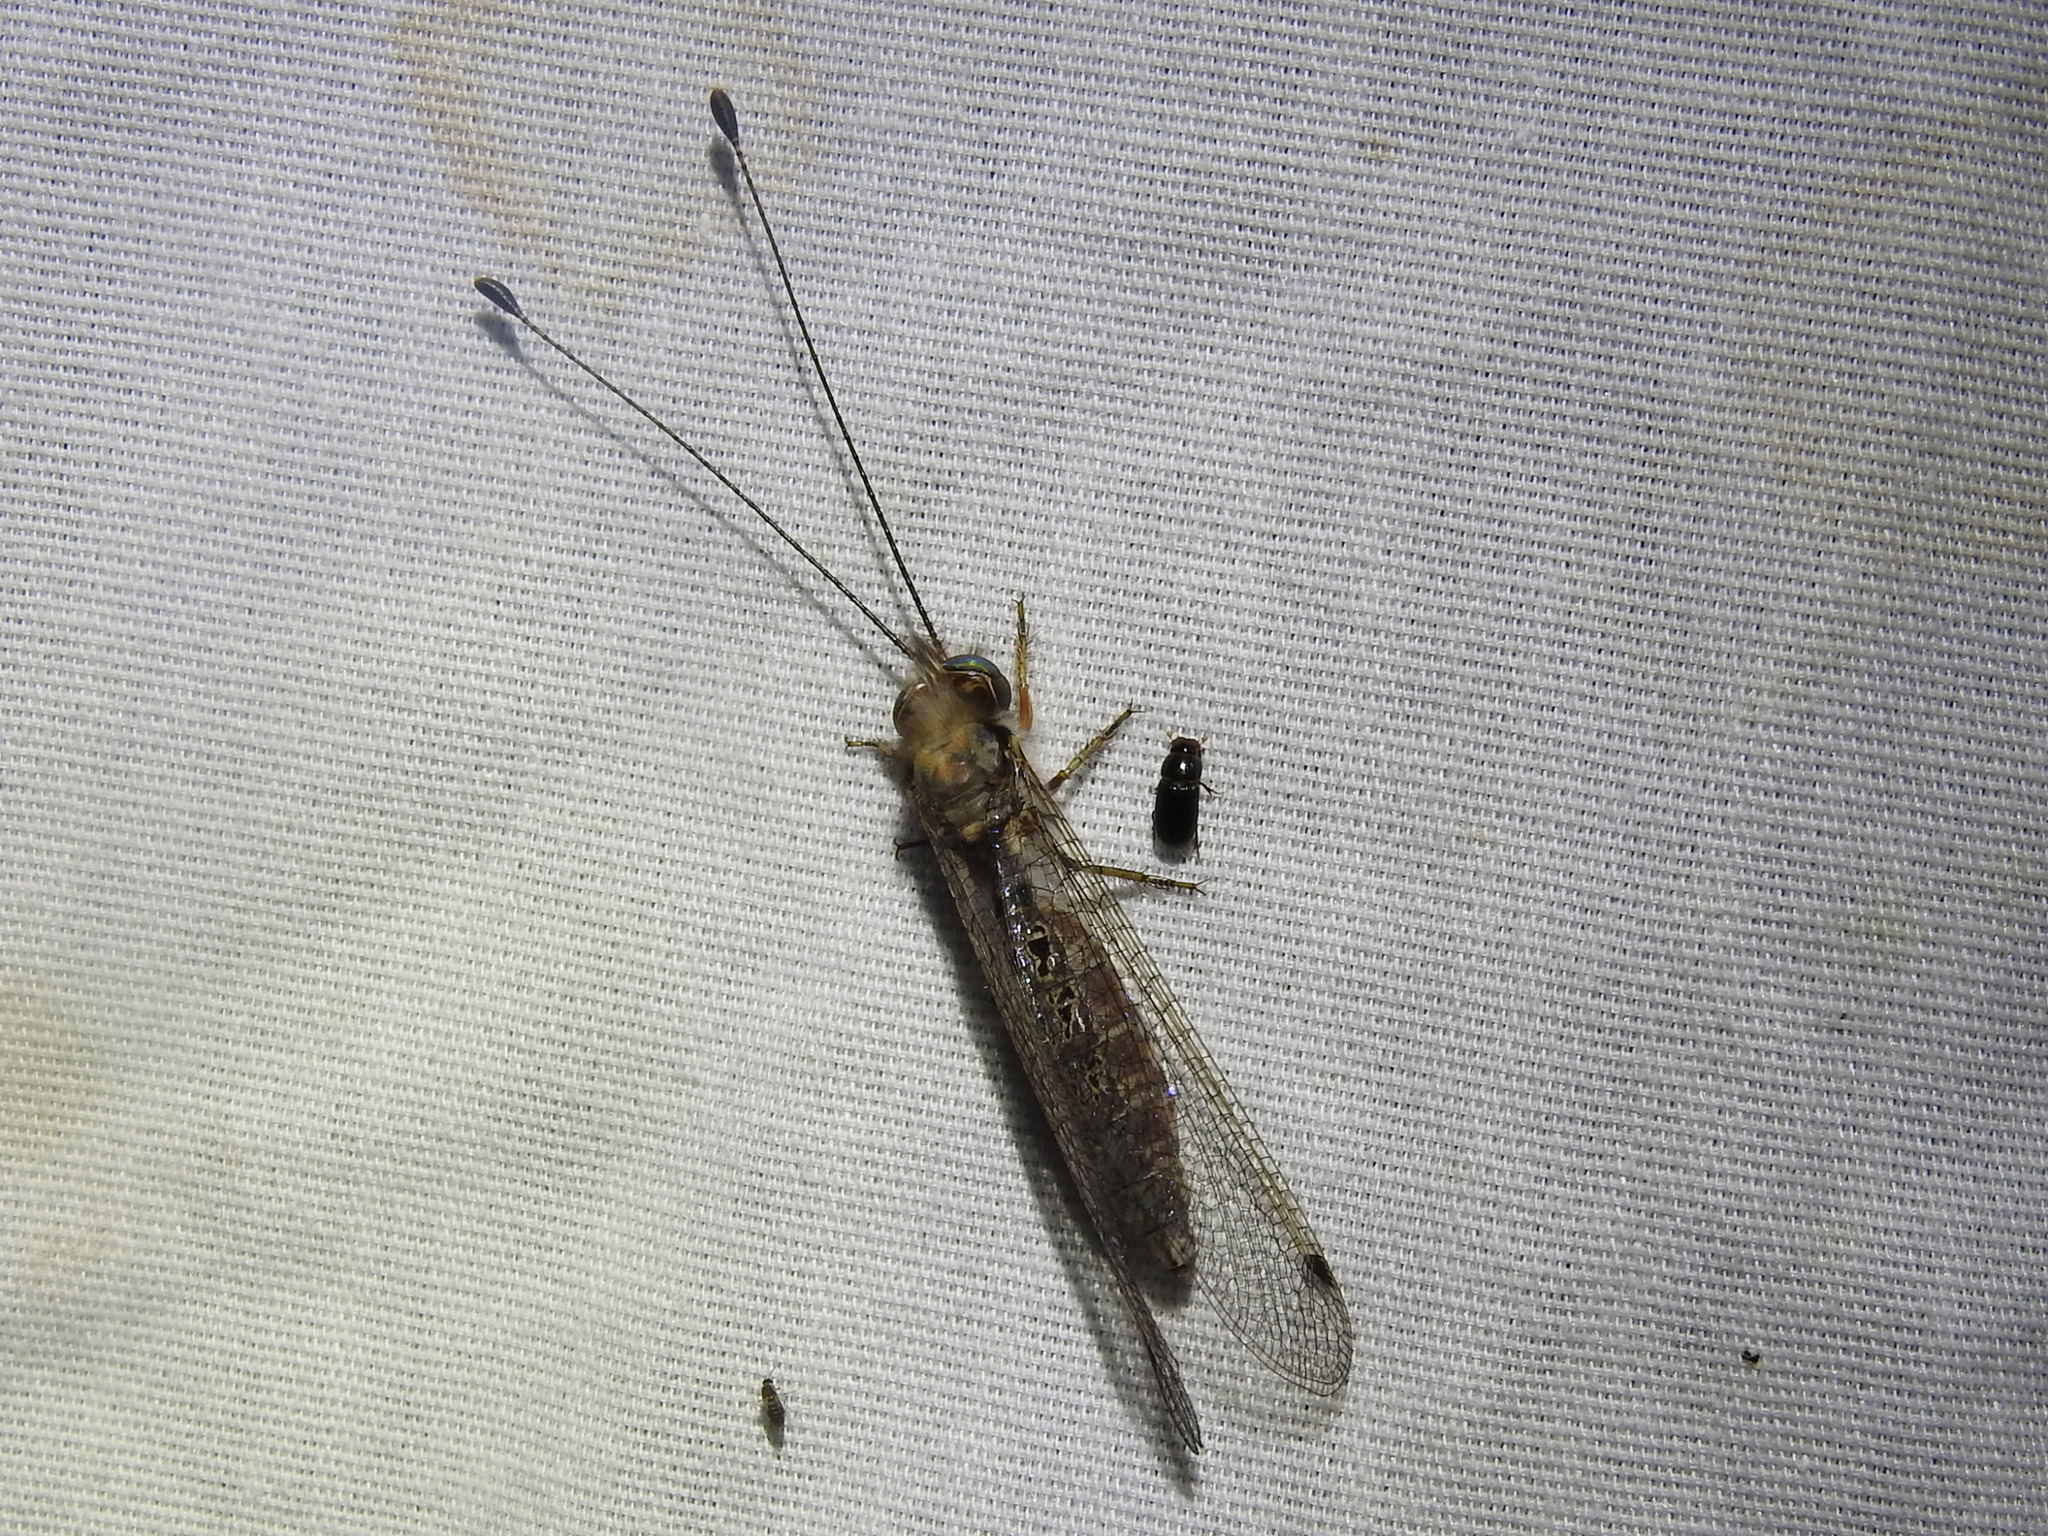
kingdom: Animalia
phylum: Arthropoda
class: Insecta
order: Neuroptera
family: Ascalaphidae
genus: Ululodes
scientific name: Ululodes macleayanus
